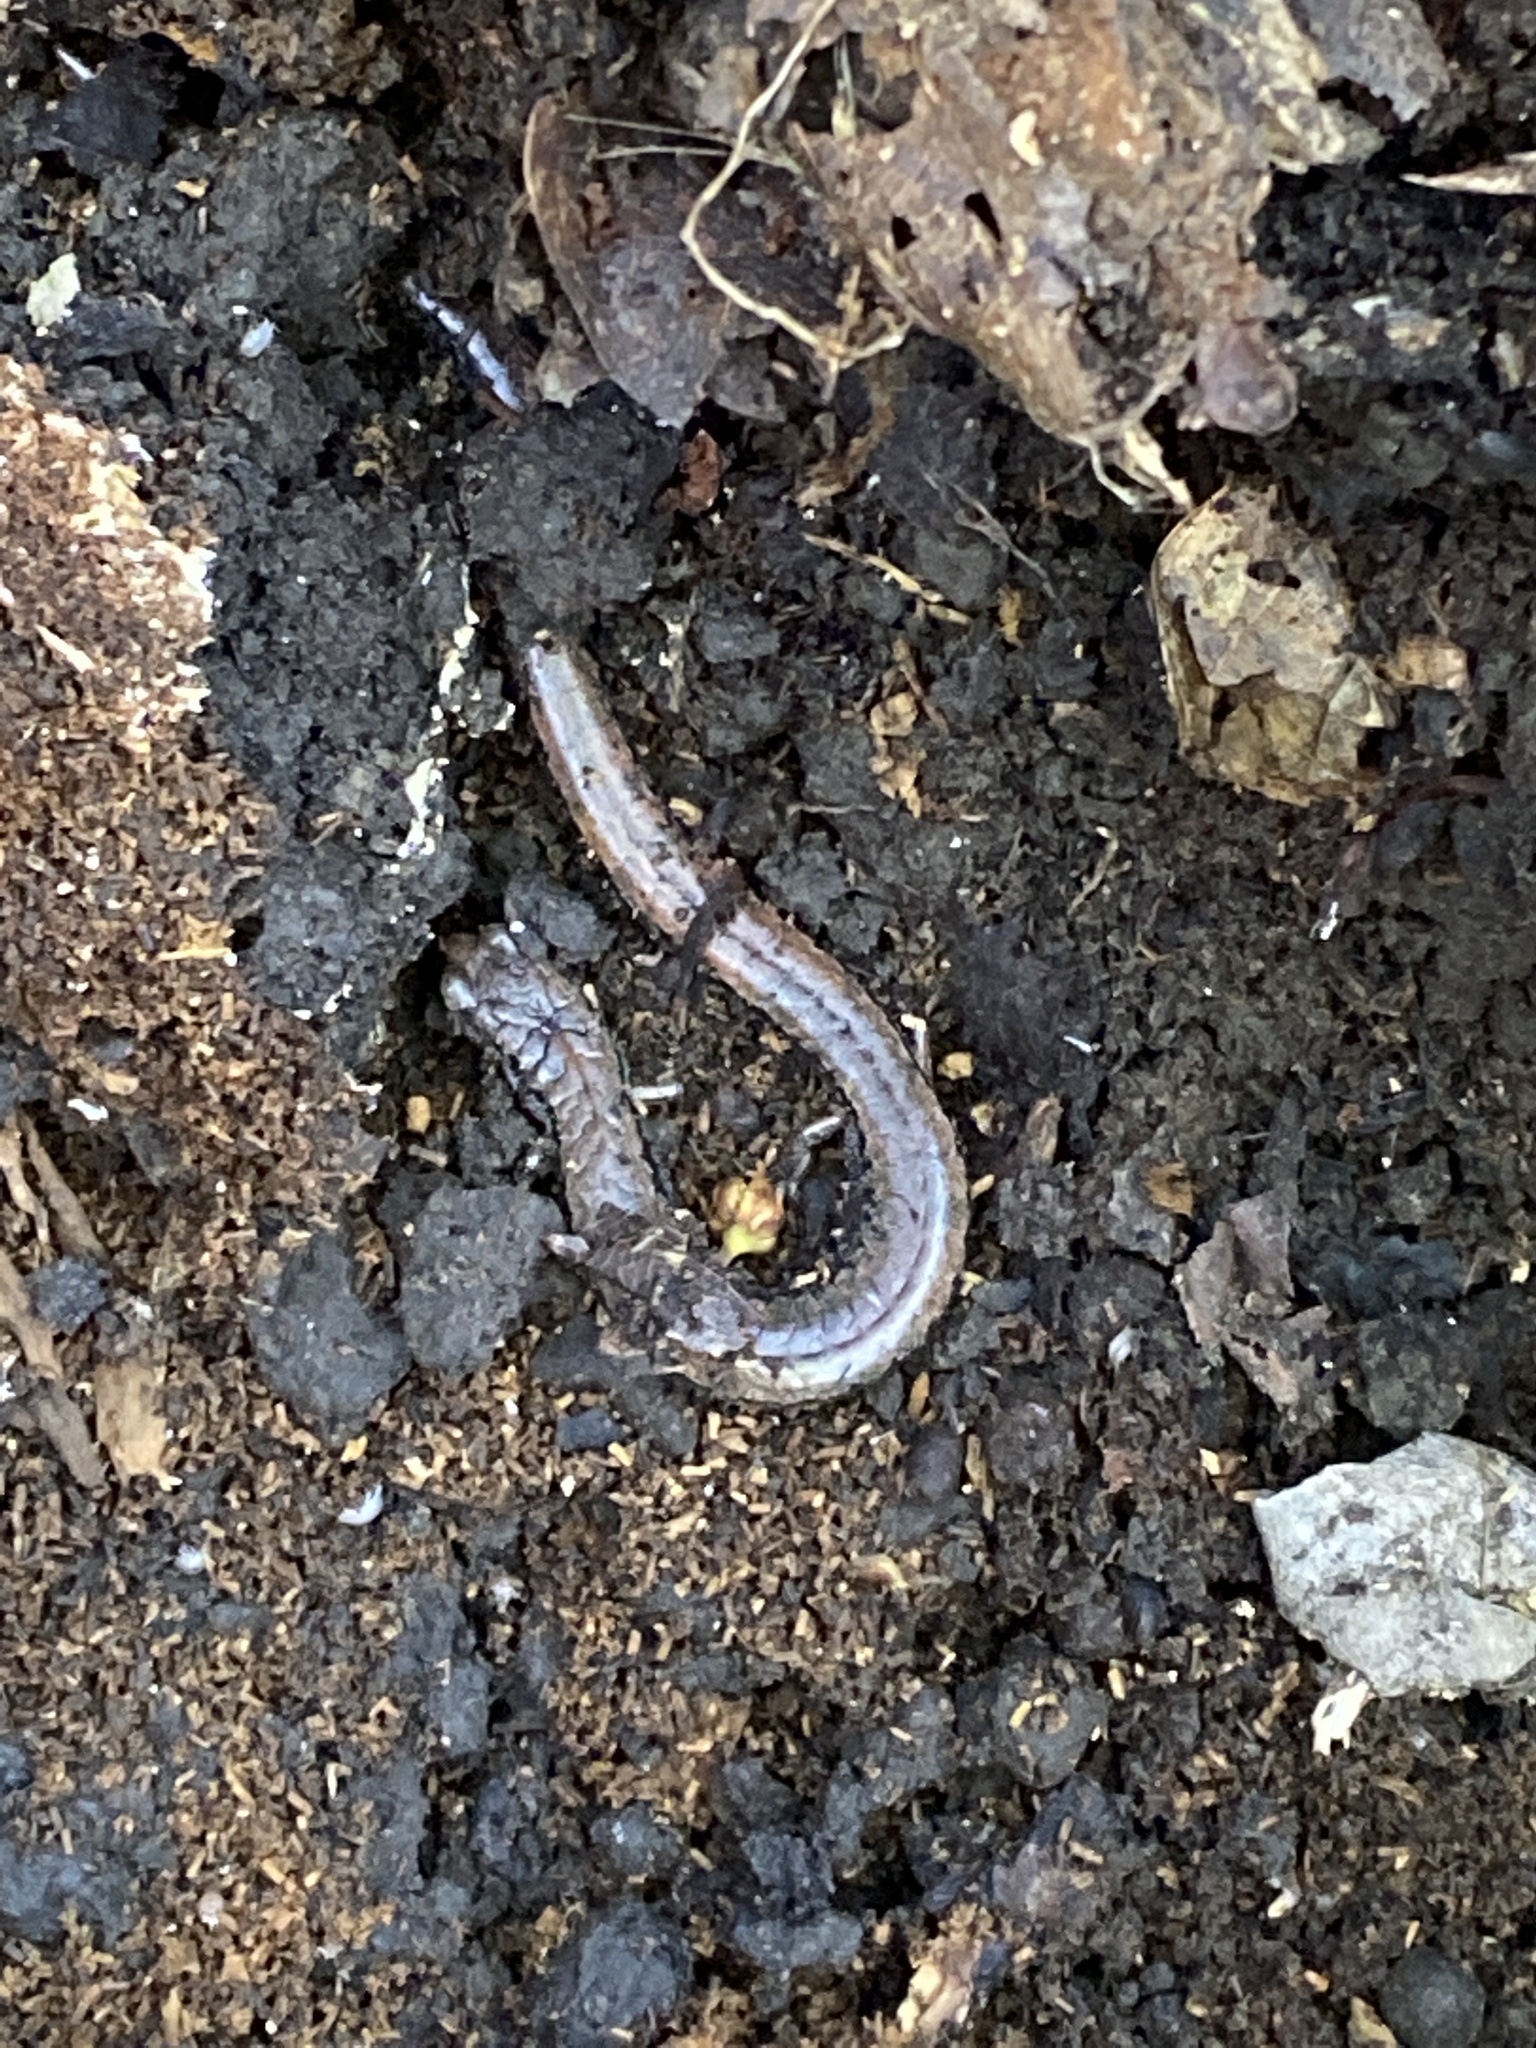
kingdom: Animalia
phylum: Chordata
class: Amphibia
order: Caudata
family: Plethodontidae
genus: Batrachoseps
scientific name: Batrachoseps attenuatus
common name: California slender salamander
